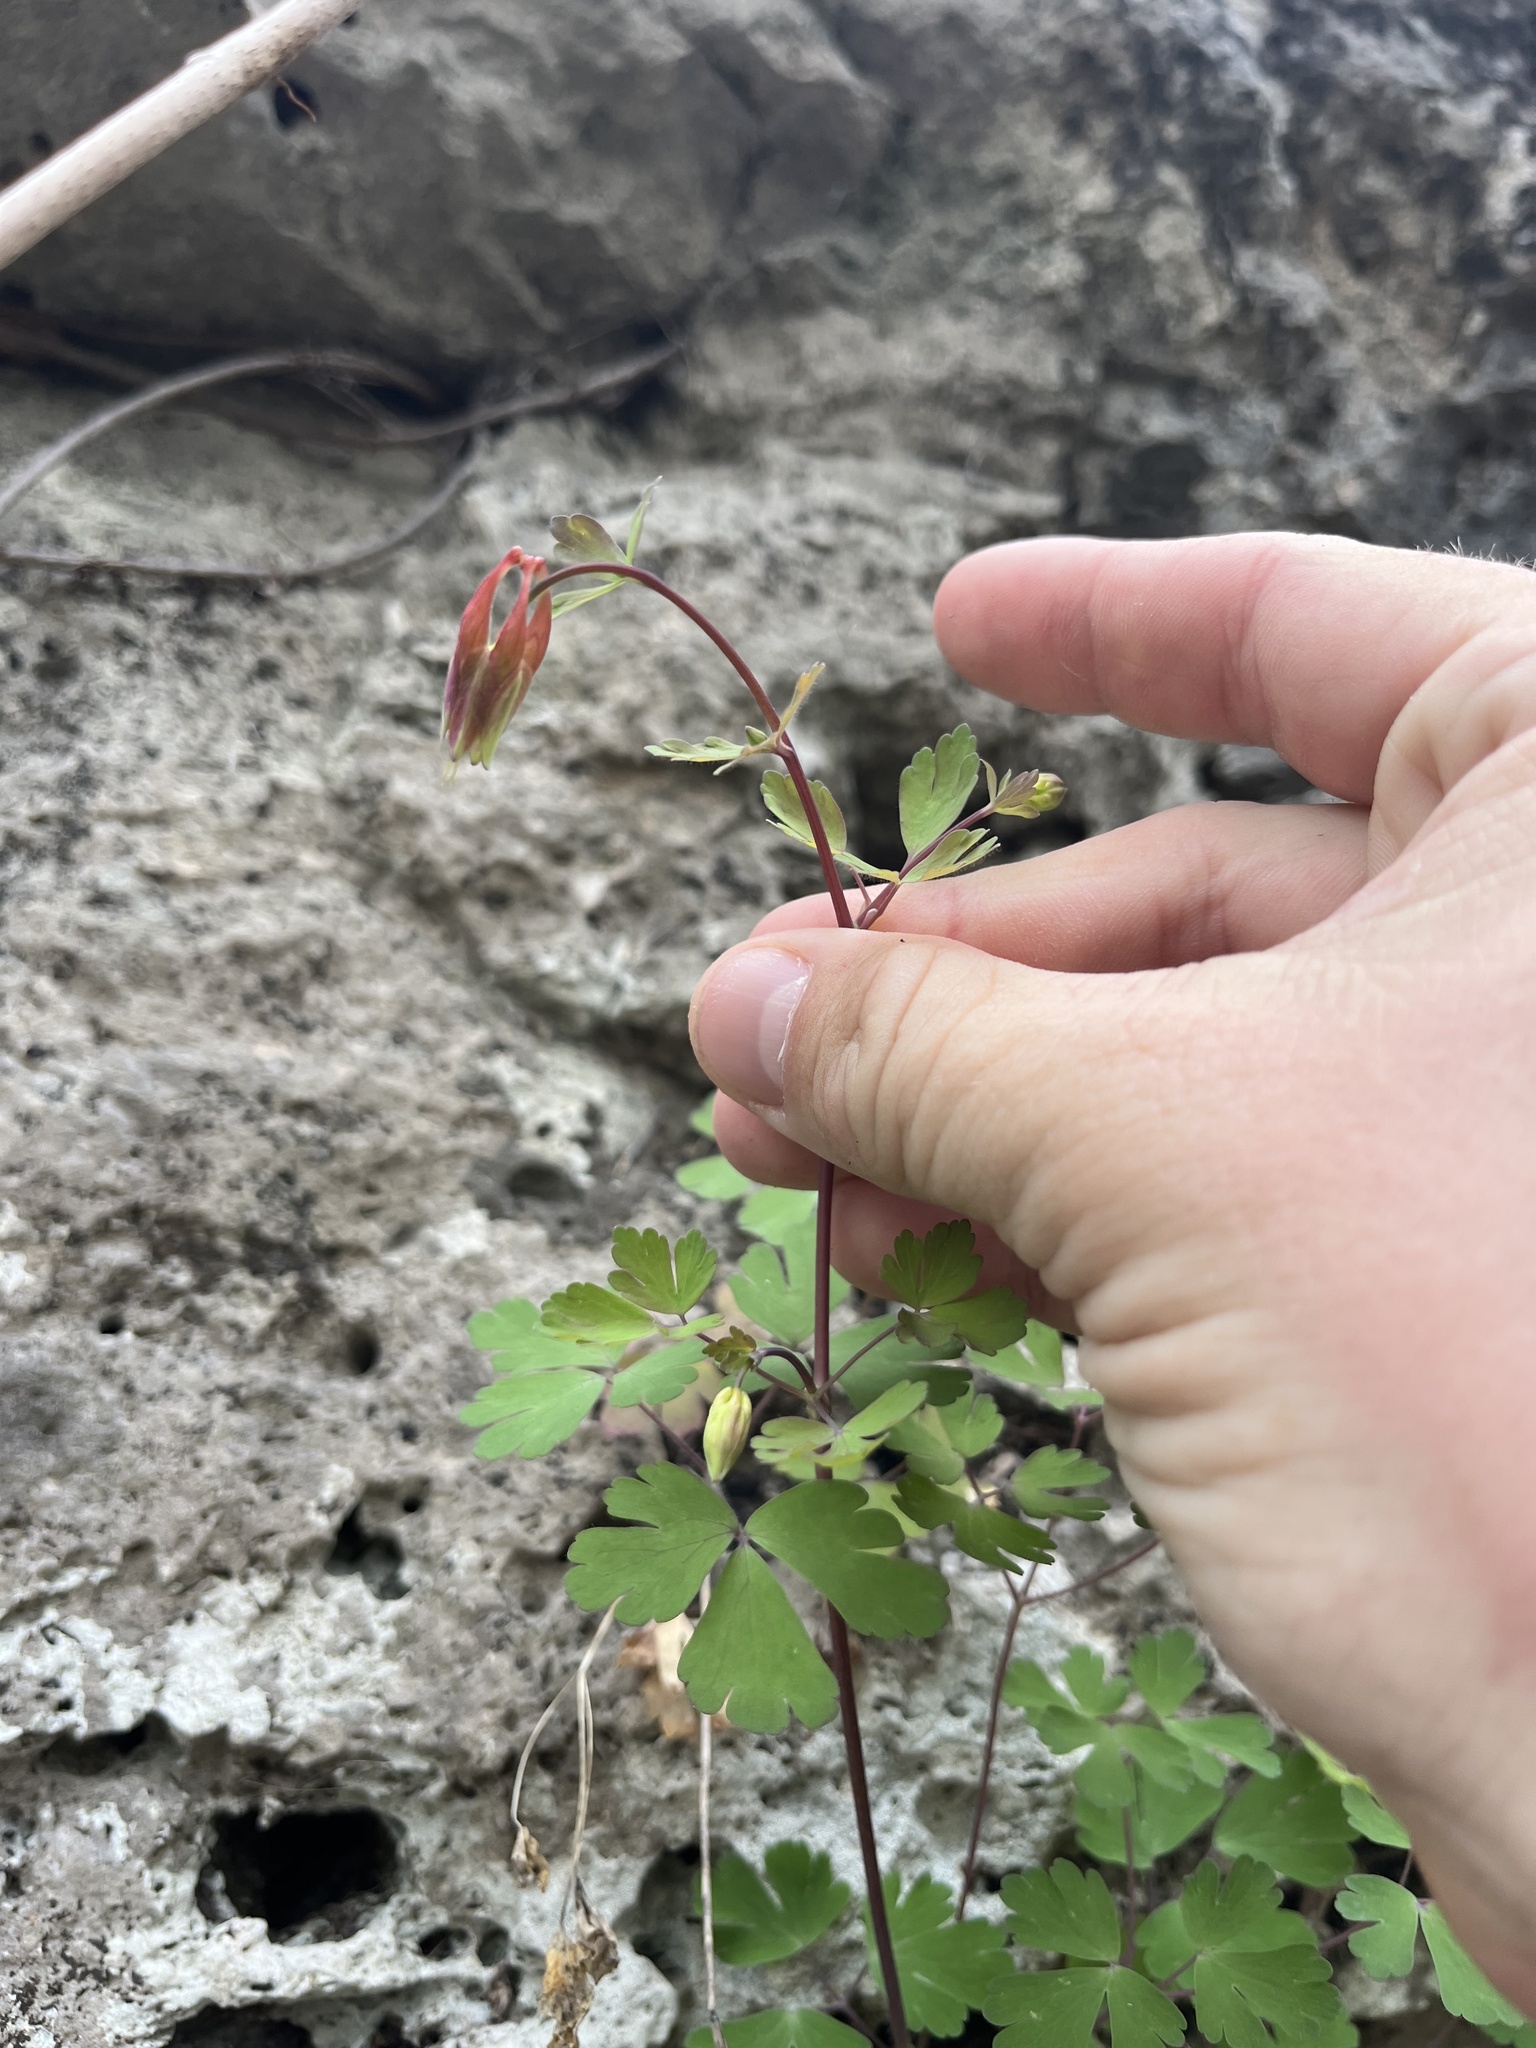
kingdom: Plantae
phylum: Tracheophyta
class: Magnoliopsida
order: Ranunculales
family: Ranunculaceae
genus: Aquilegia
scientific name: Aquilegia canadensis
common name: American columbine
